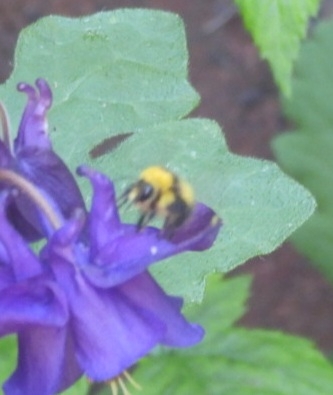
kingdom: Animalia
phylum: Arthropoda
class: Insecta
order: Hymenoptera
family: Apidae
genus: Bombus
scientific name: Bombus pratorum
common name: Early humble-bee
